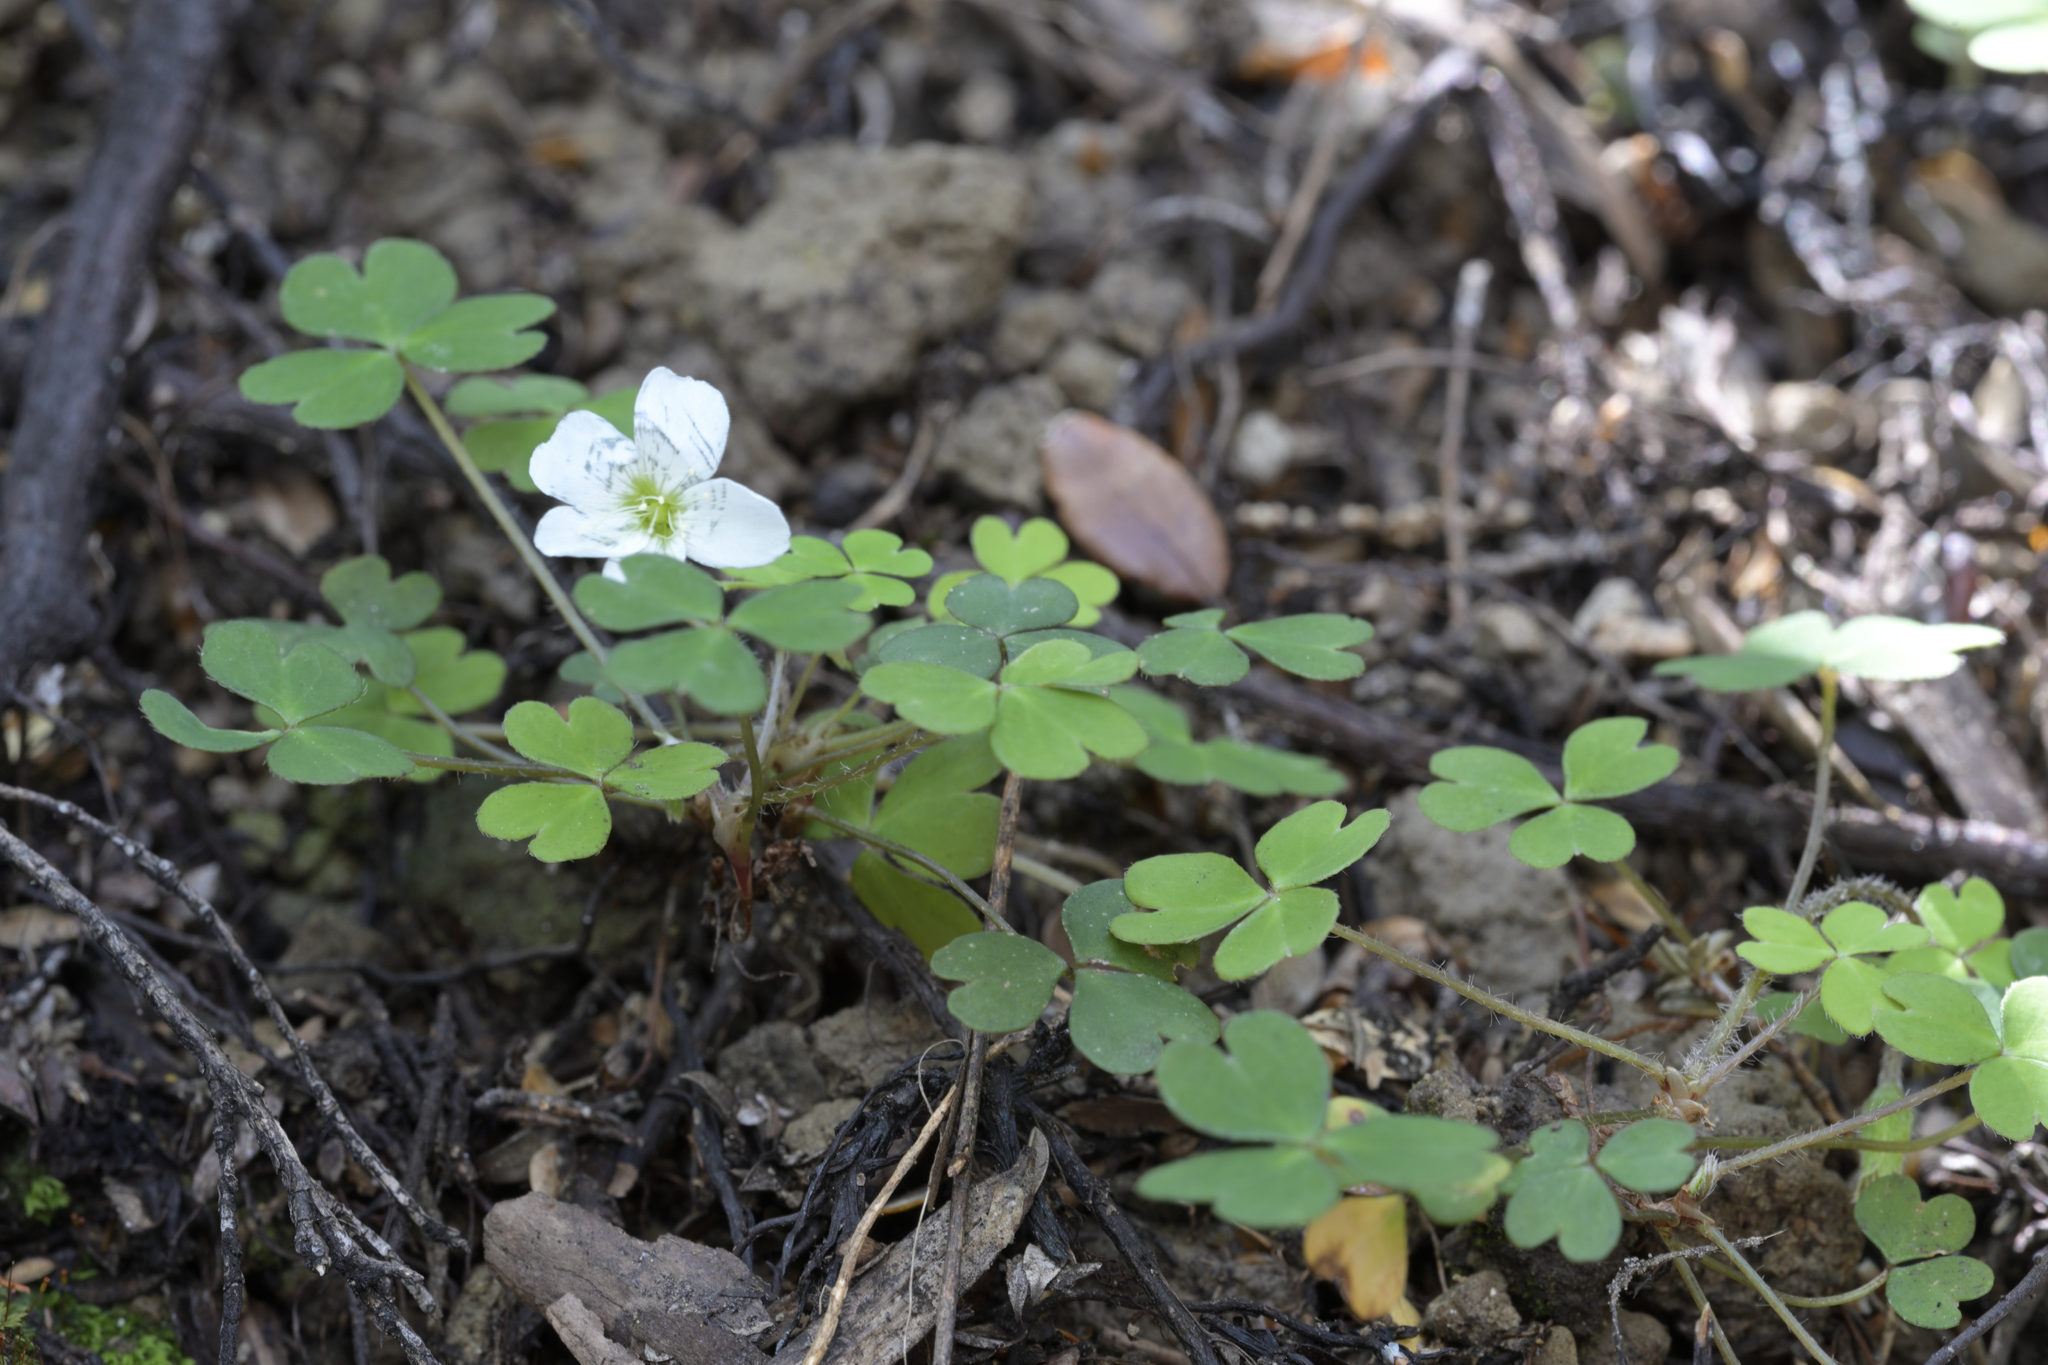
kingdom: Plantae
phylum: Tracheophyta
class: Magnoliopsida
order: Oxalidales
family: Oxalidaceae
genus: Oxalis
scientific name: Oxalis magellanica
